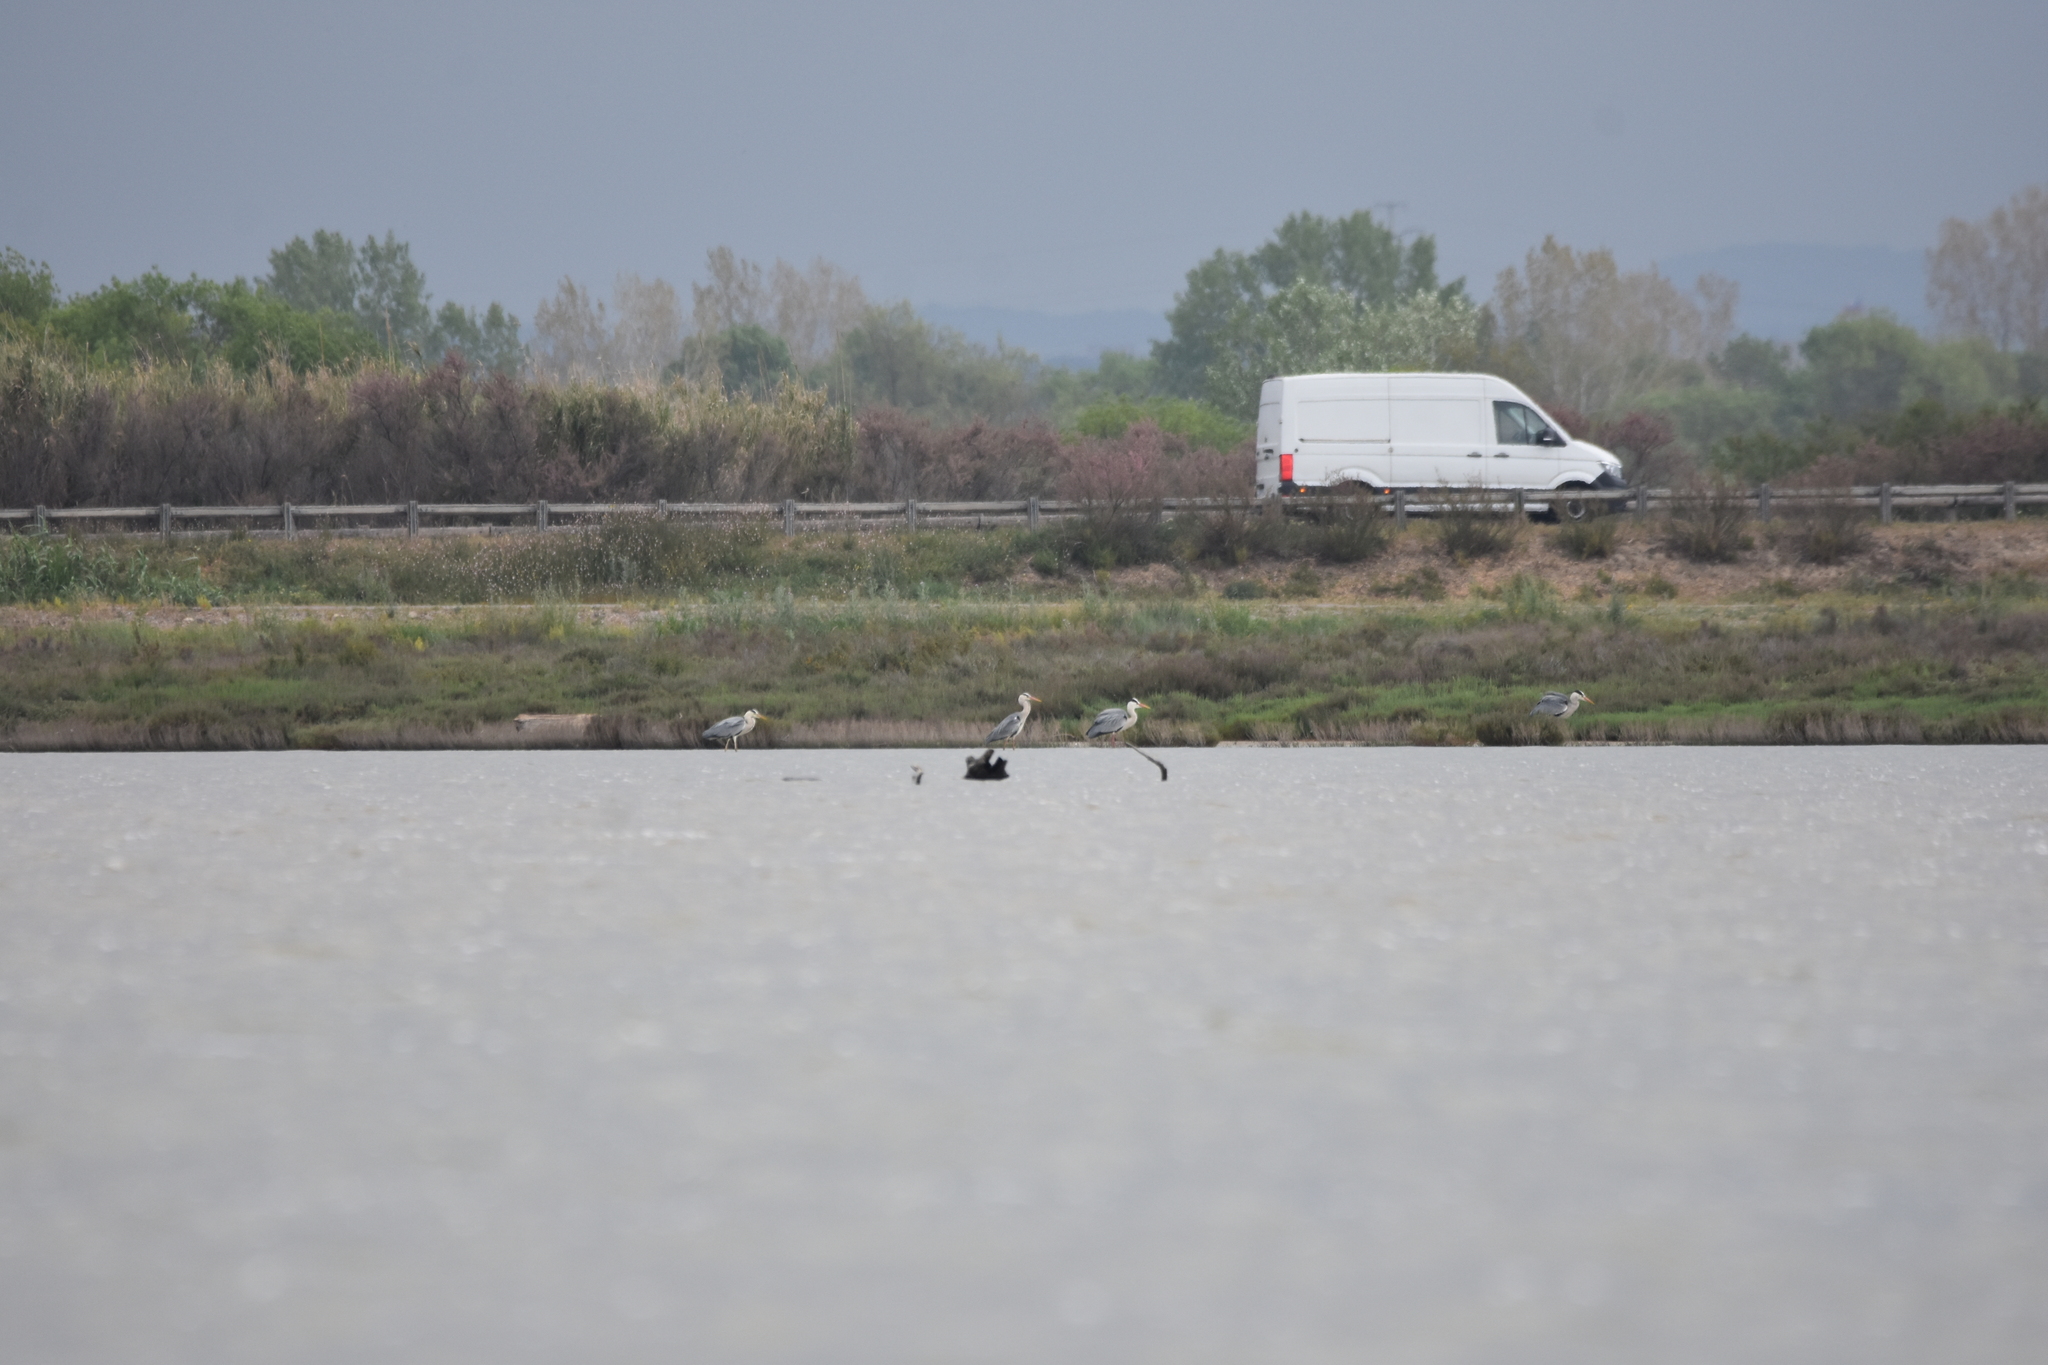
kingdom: Animalia
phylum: Chordata
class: Aves
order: Pelecaniformes
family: Ardeidae
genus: Ardea
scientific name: Ardea cinerea
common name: Grey heron
